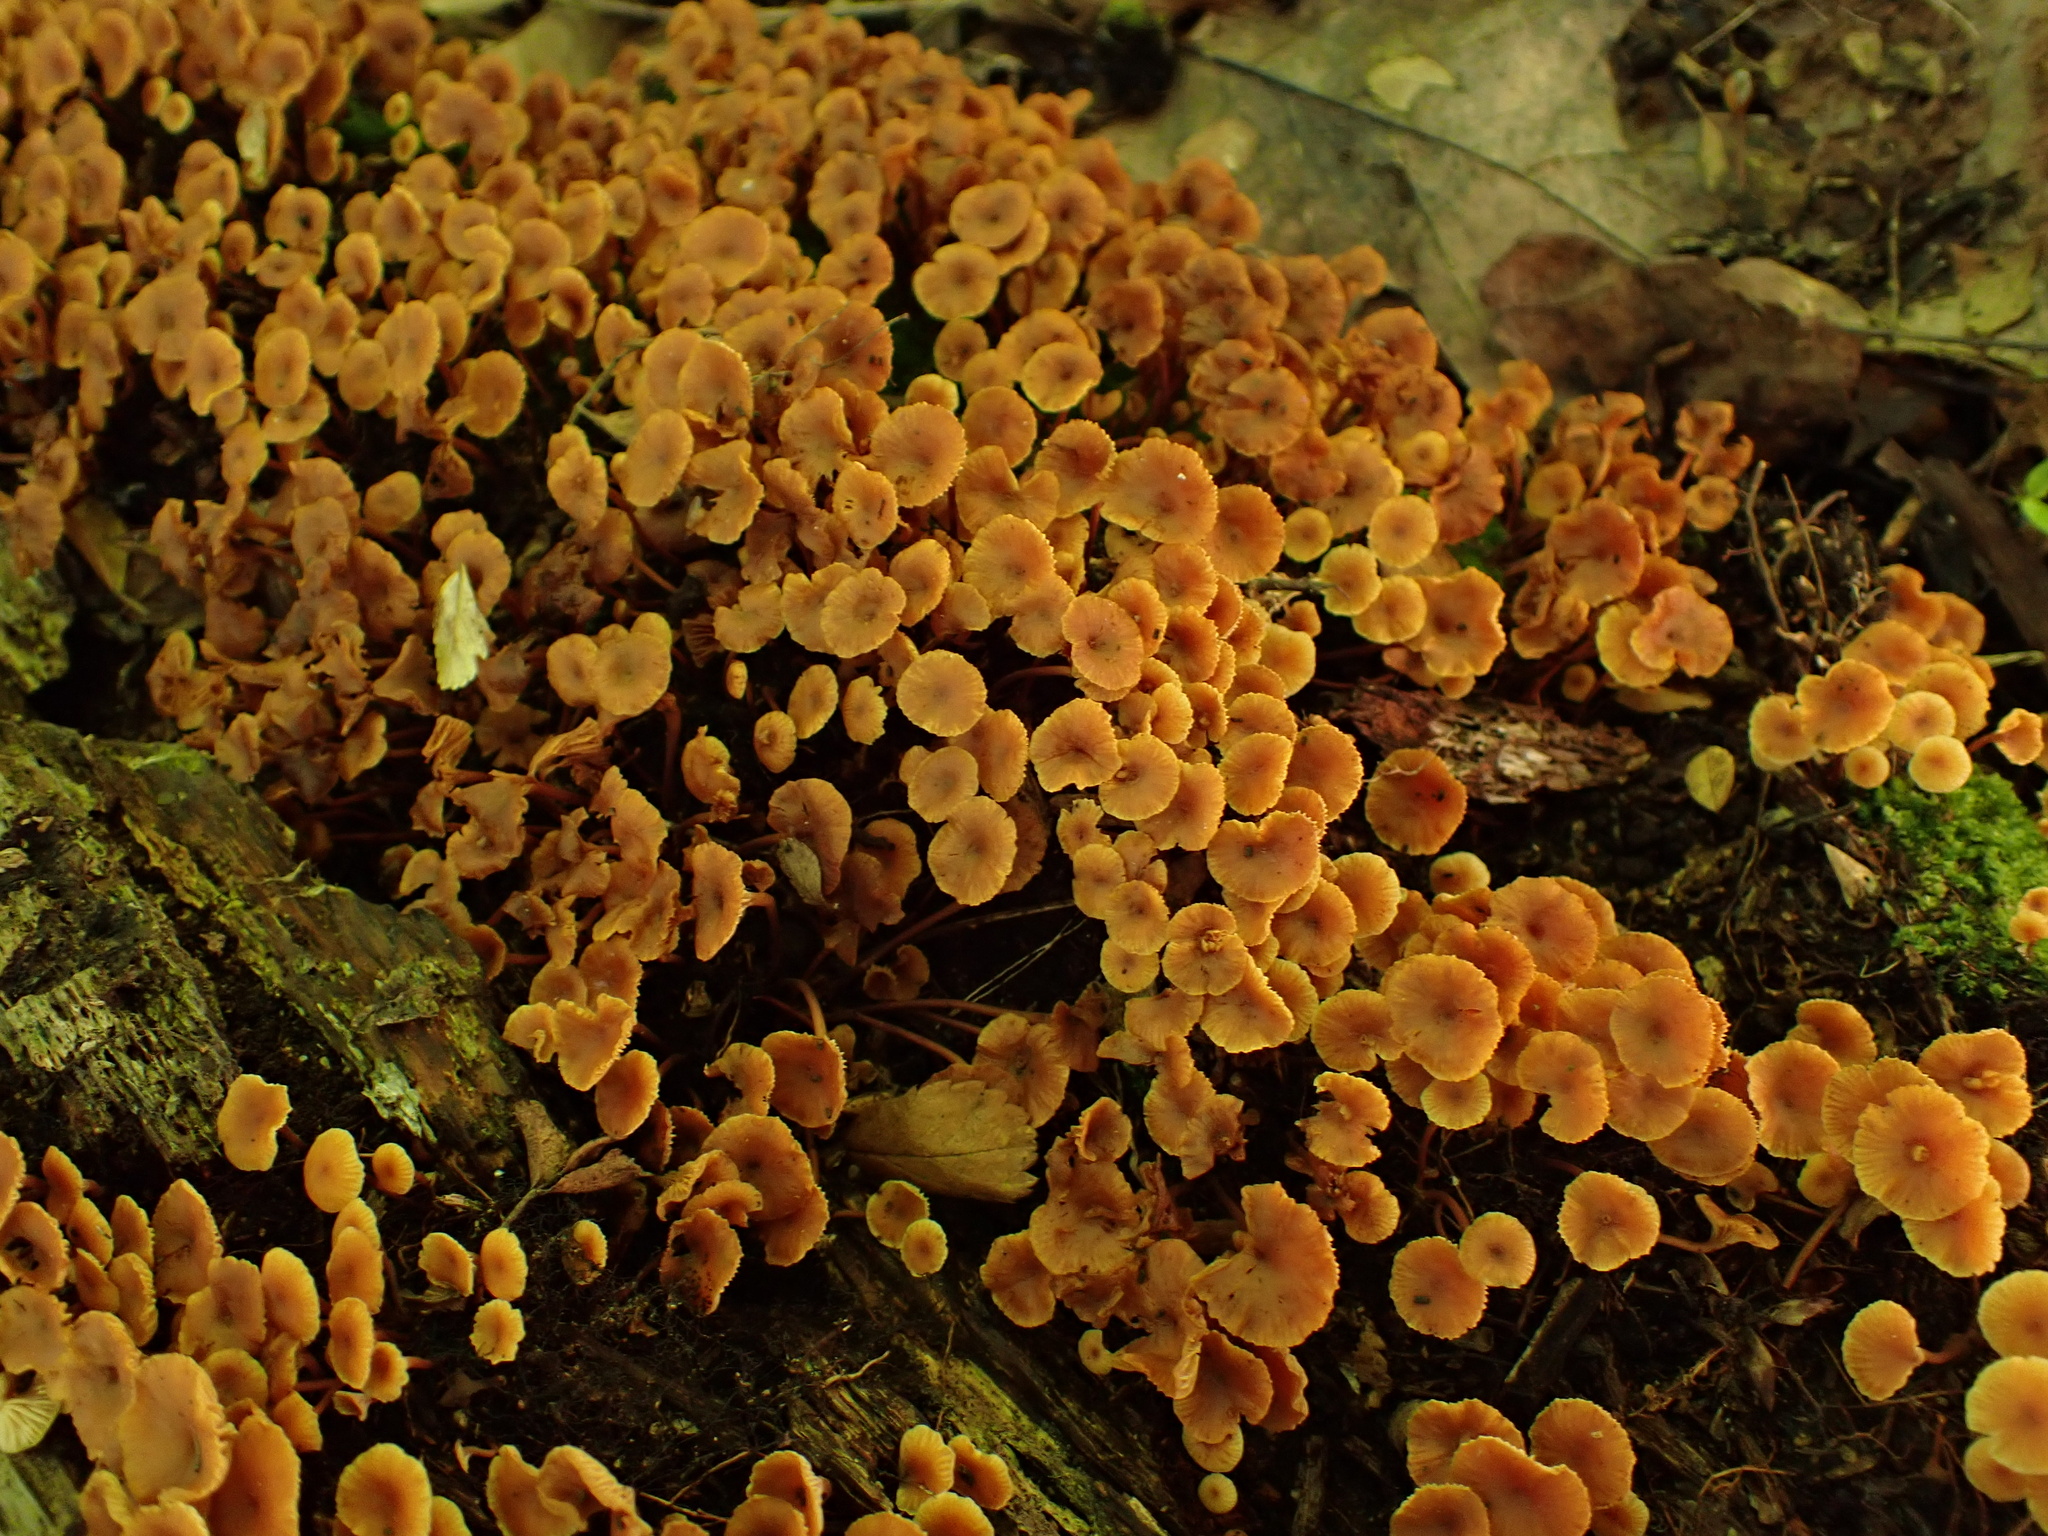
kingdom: Fungi
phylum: Basidiomycota
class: Agaricomycetes
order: Agaricales
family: Mycenaceae
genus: Xeromphalina
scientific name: Xeromphalina kauffmanii
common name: Cross-veined troop mushroom
